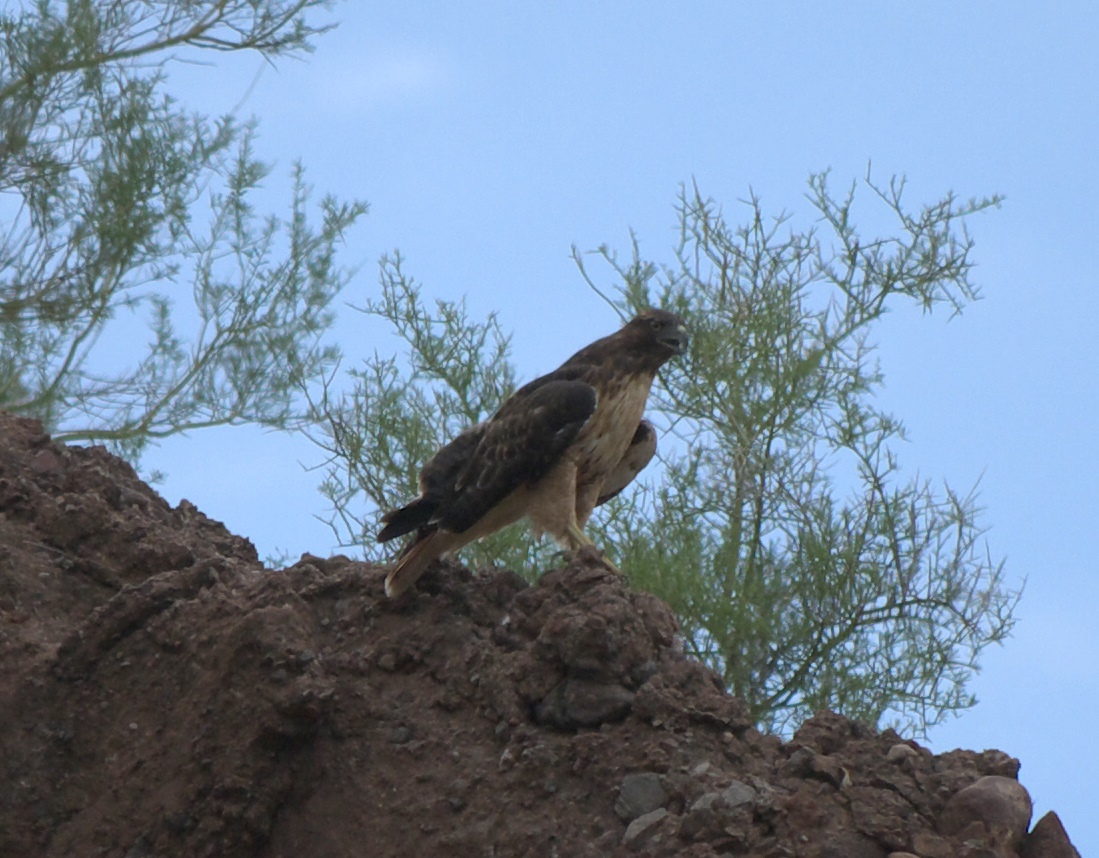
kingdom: Animalia
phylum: Chordata
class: Aves
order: Accipitriformes
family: Accipitridae
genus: Buteo
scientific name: Buteo jamaicensis
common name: Red-tailed hawk
